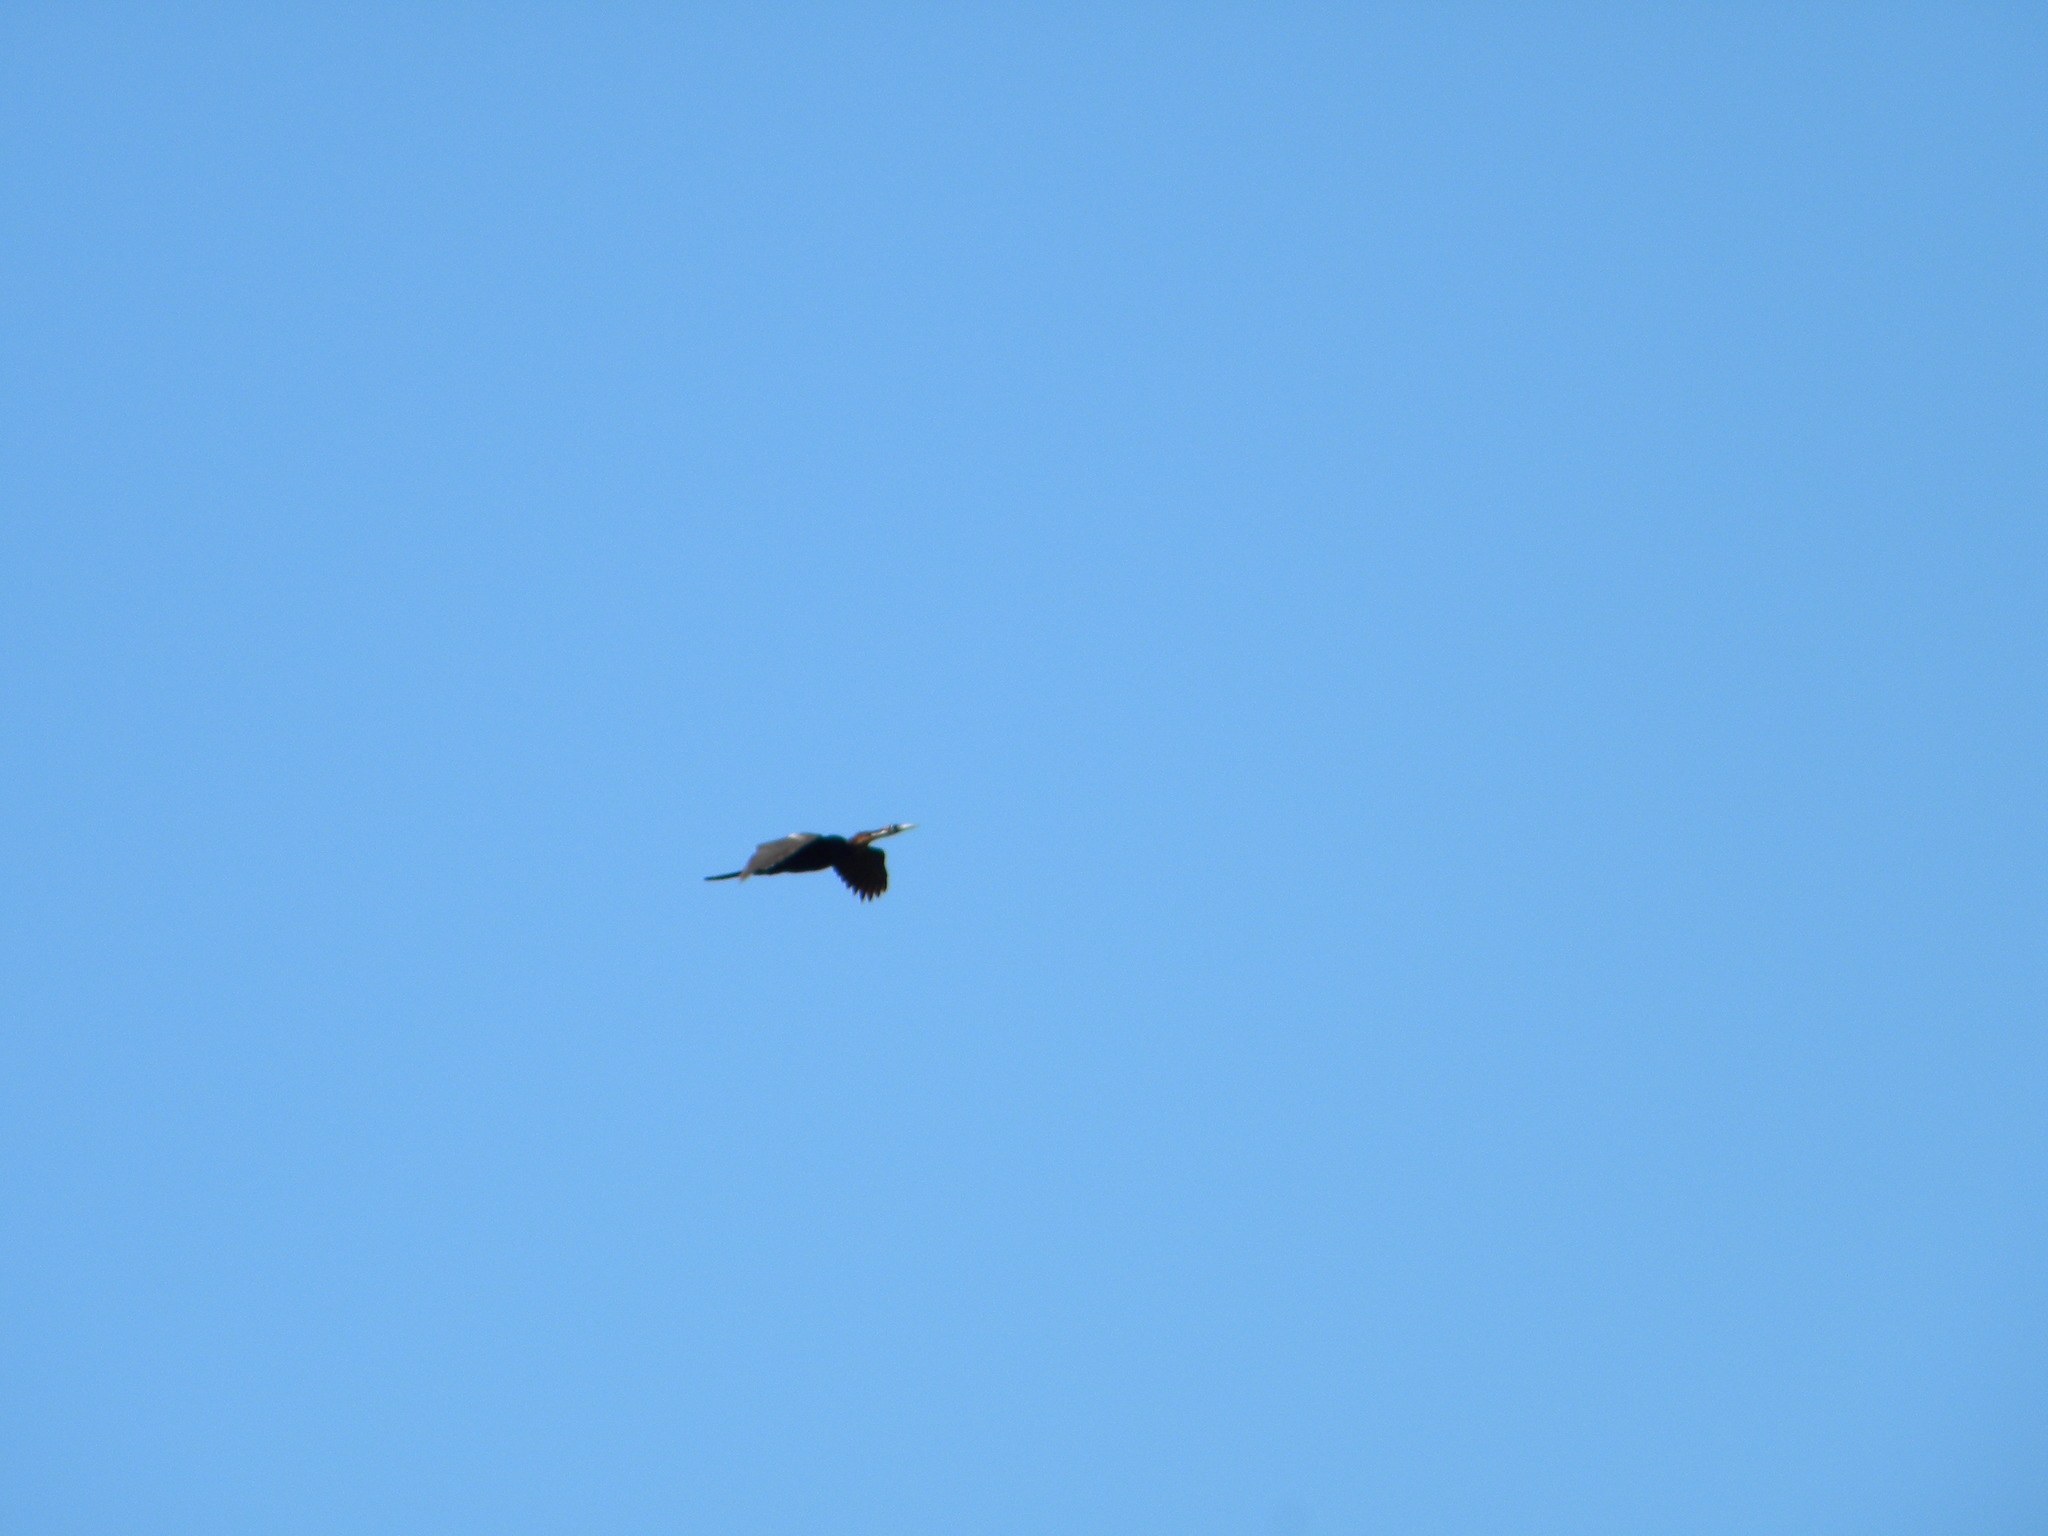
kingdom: Animalia
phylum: Chordata
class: Aves
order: Suliformes
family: Anhingidae
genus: Anhinga
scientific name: Anhinga rufa
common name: African darter
